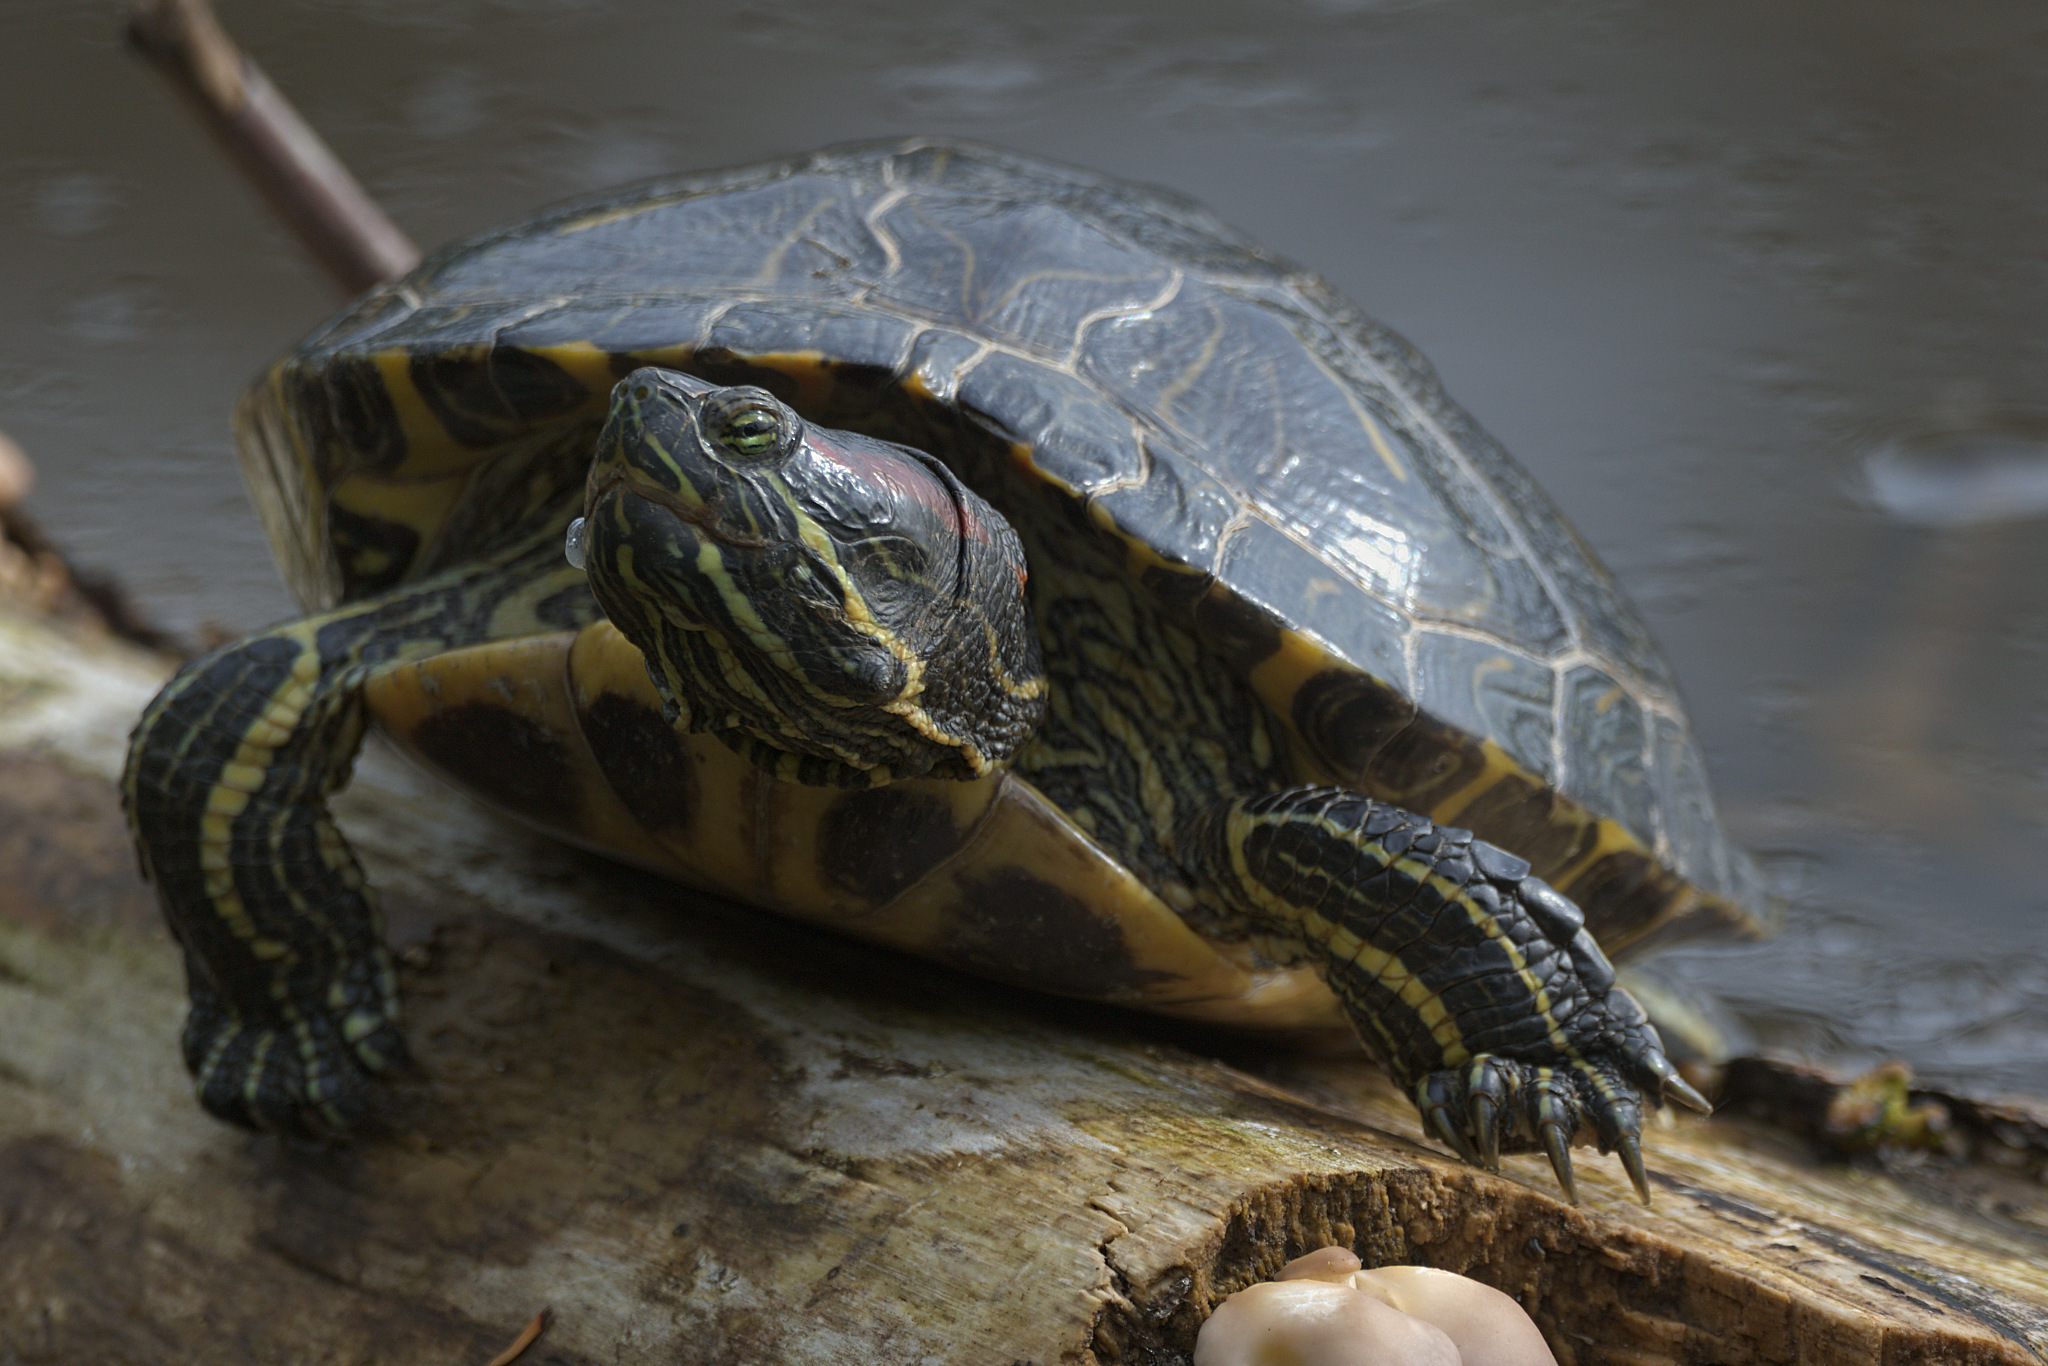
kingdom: Animalia
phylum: Chordata
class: Testudines
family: Emydidae
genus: Trachemys
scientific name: Trachemys scripta
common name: Slider
